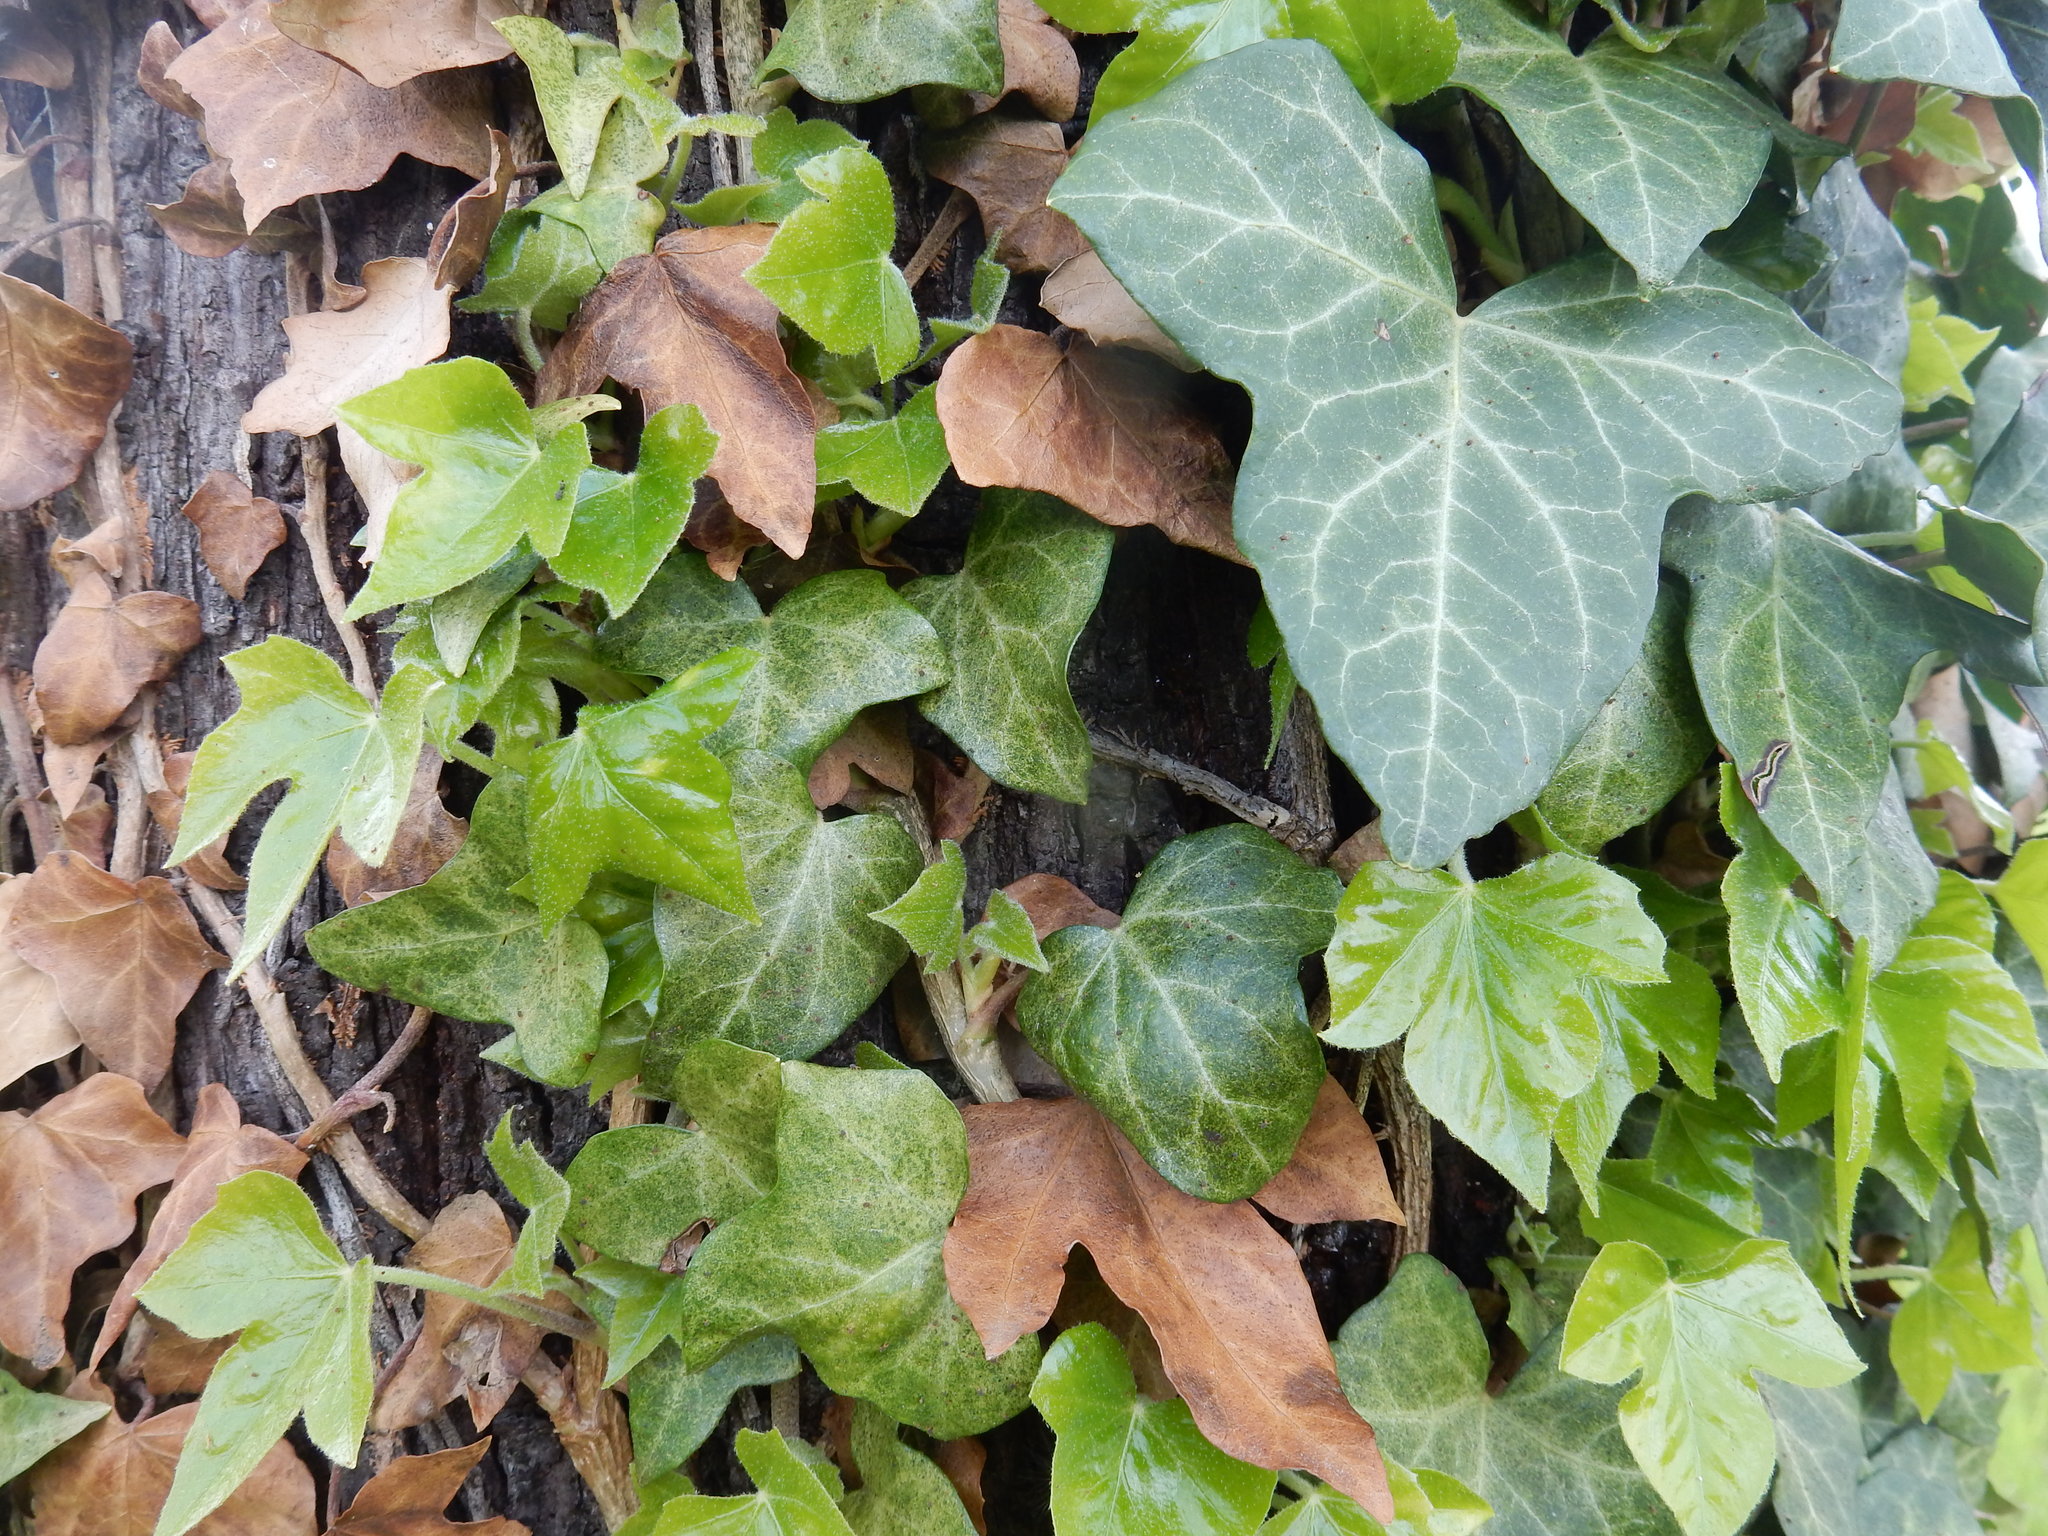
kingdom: Plantae
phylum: Tracheophyta
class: Magnoliopsida
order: Apiales
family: Araliaceae
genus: Hedera
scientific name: Hedera helix
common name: Ivy
